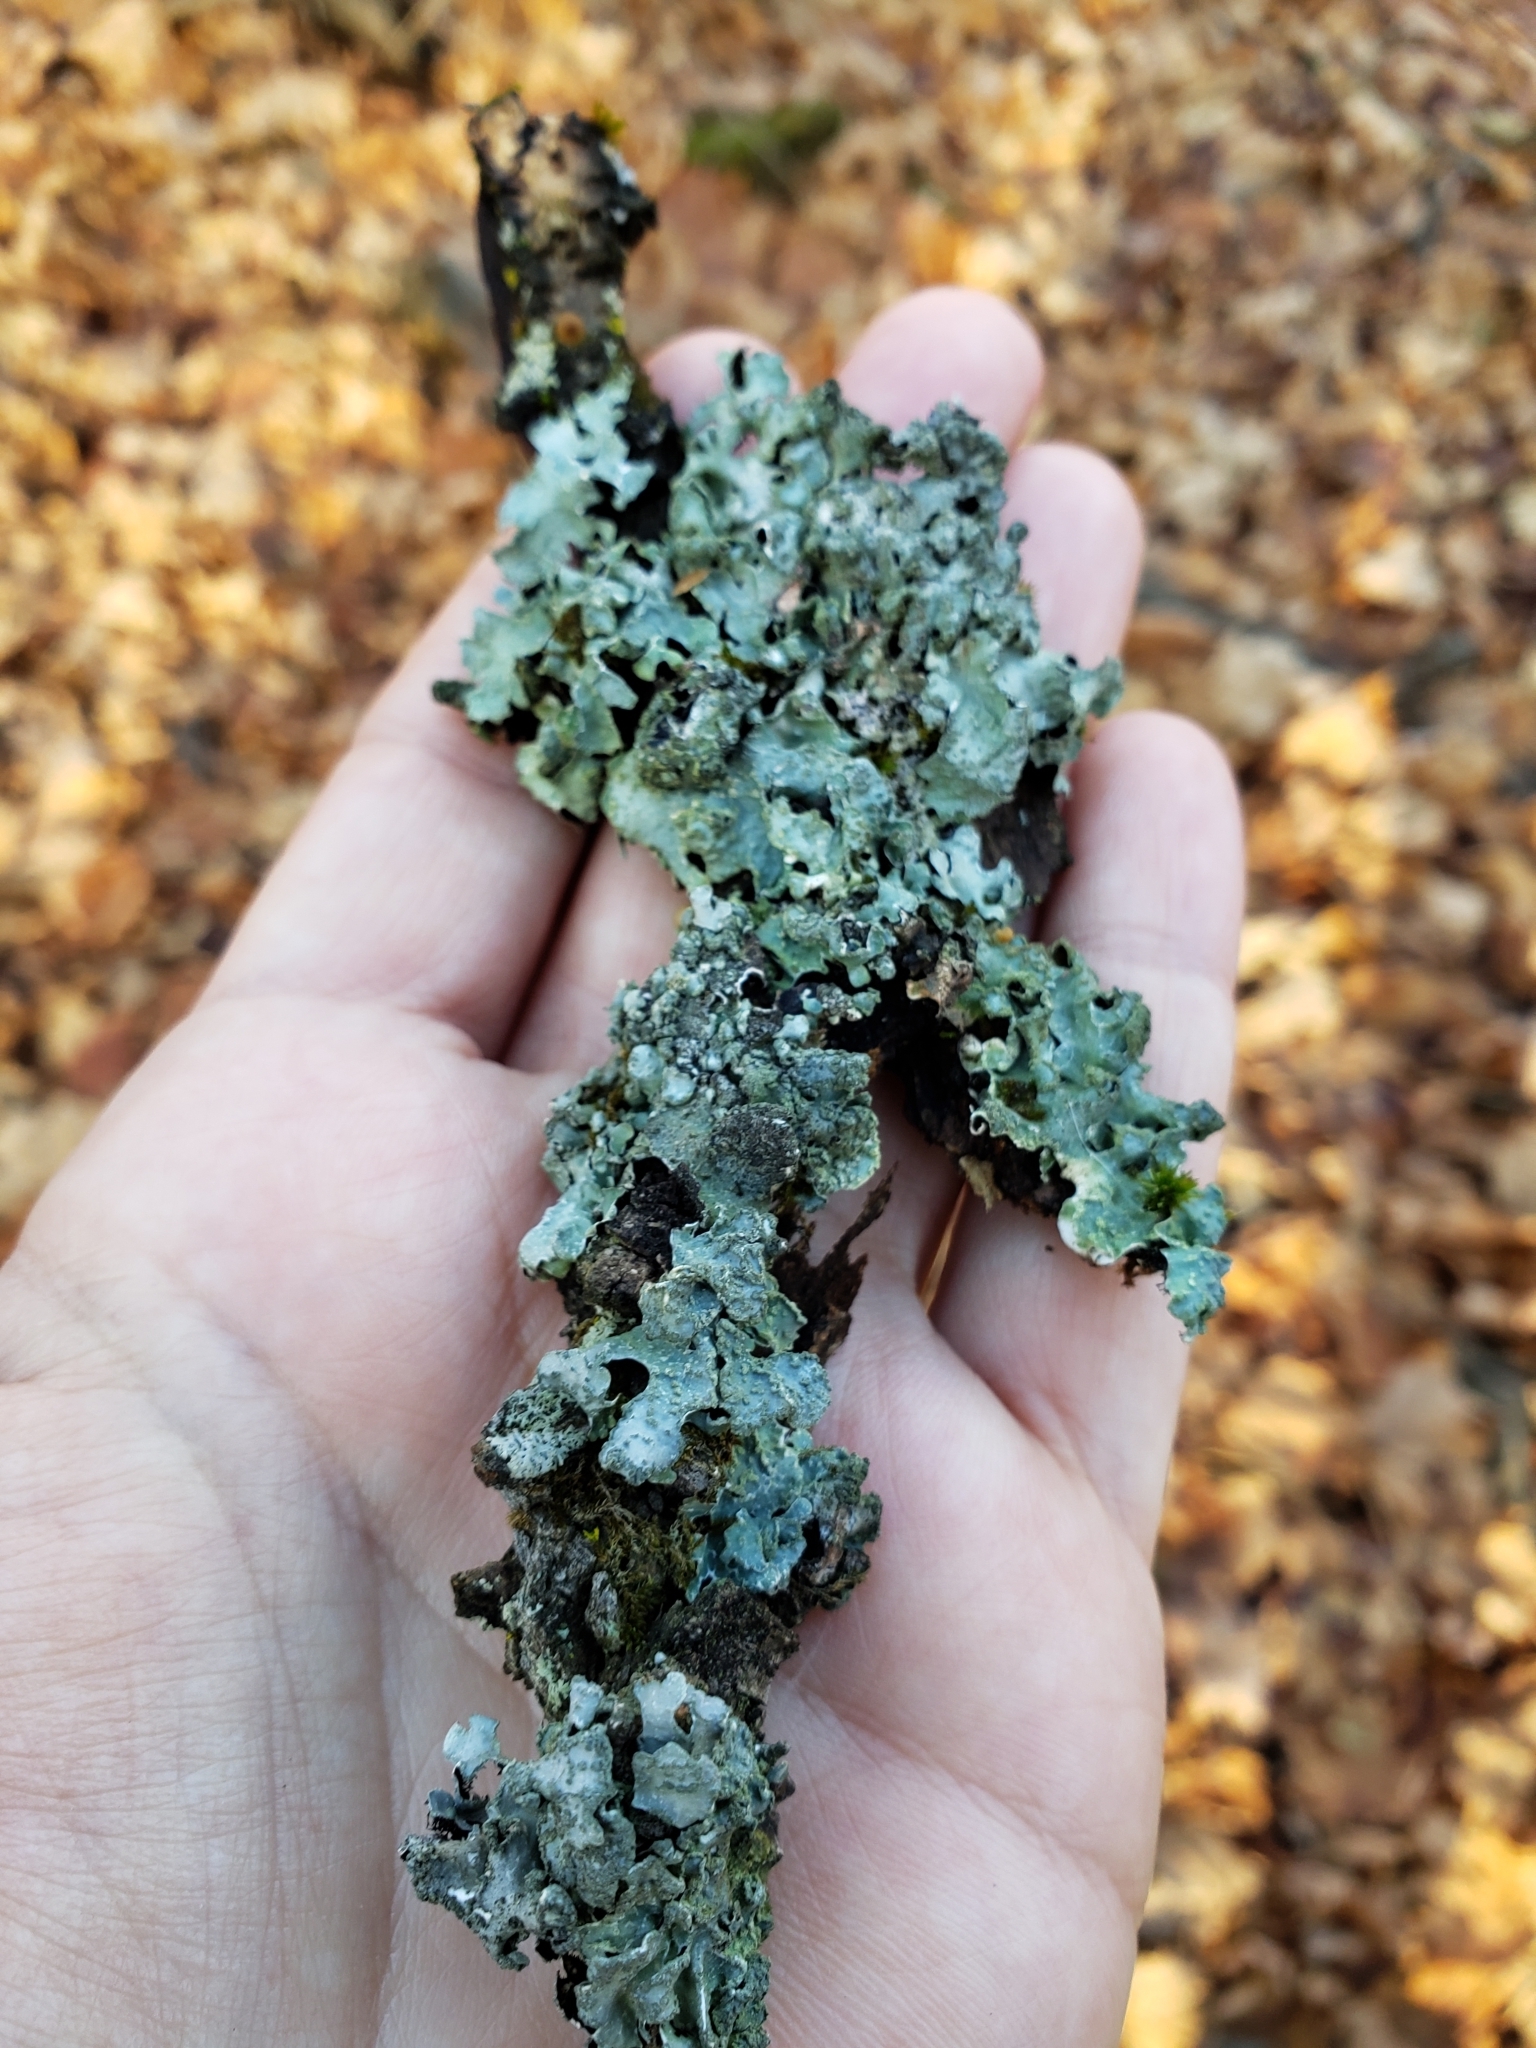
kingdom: Fungi
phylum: Ascomycota
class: Lecanoromycetes
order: Lecanorales
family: Parmeliaceae
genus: Parmelia
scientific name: Parmelia sulcata
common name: Netted shield lichen
